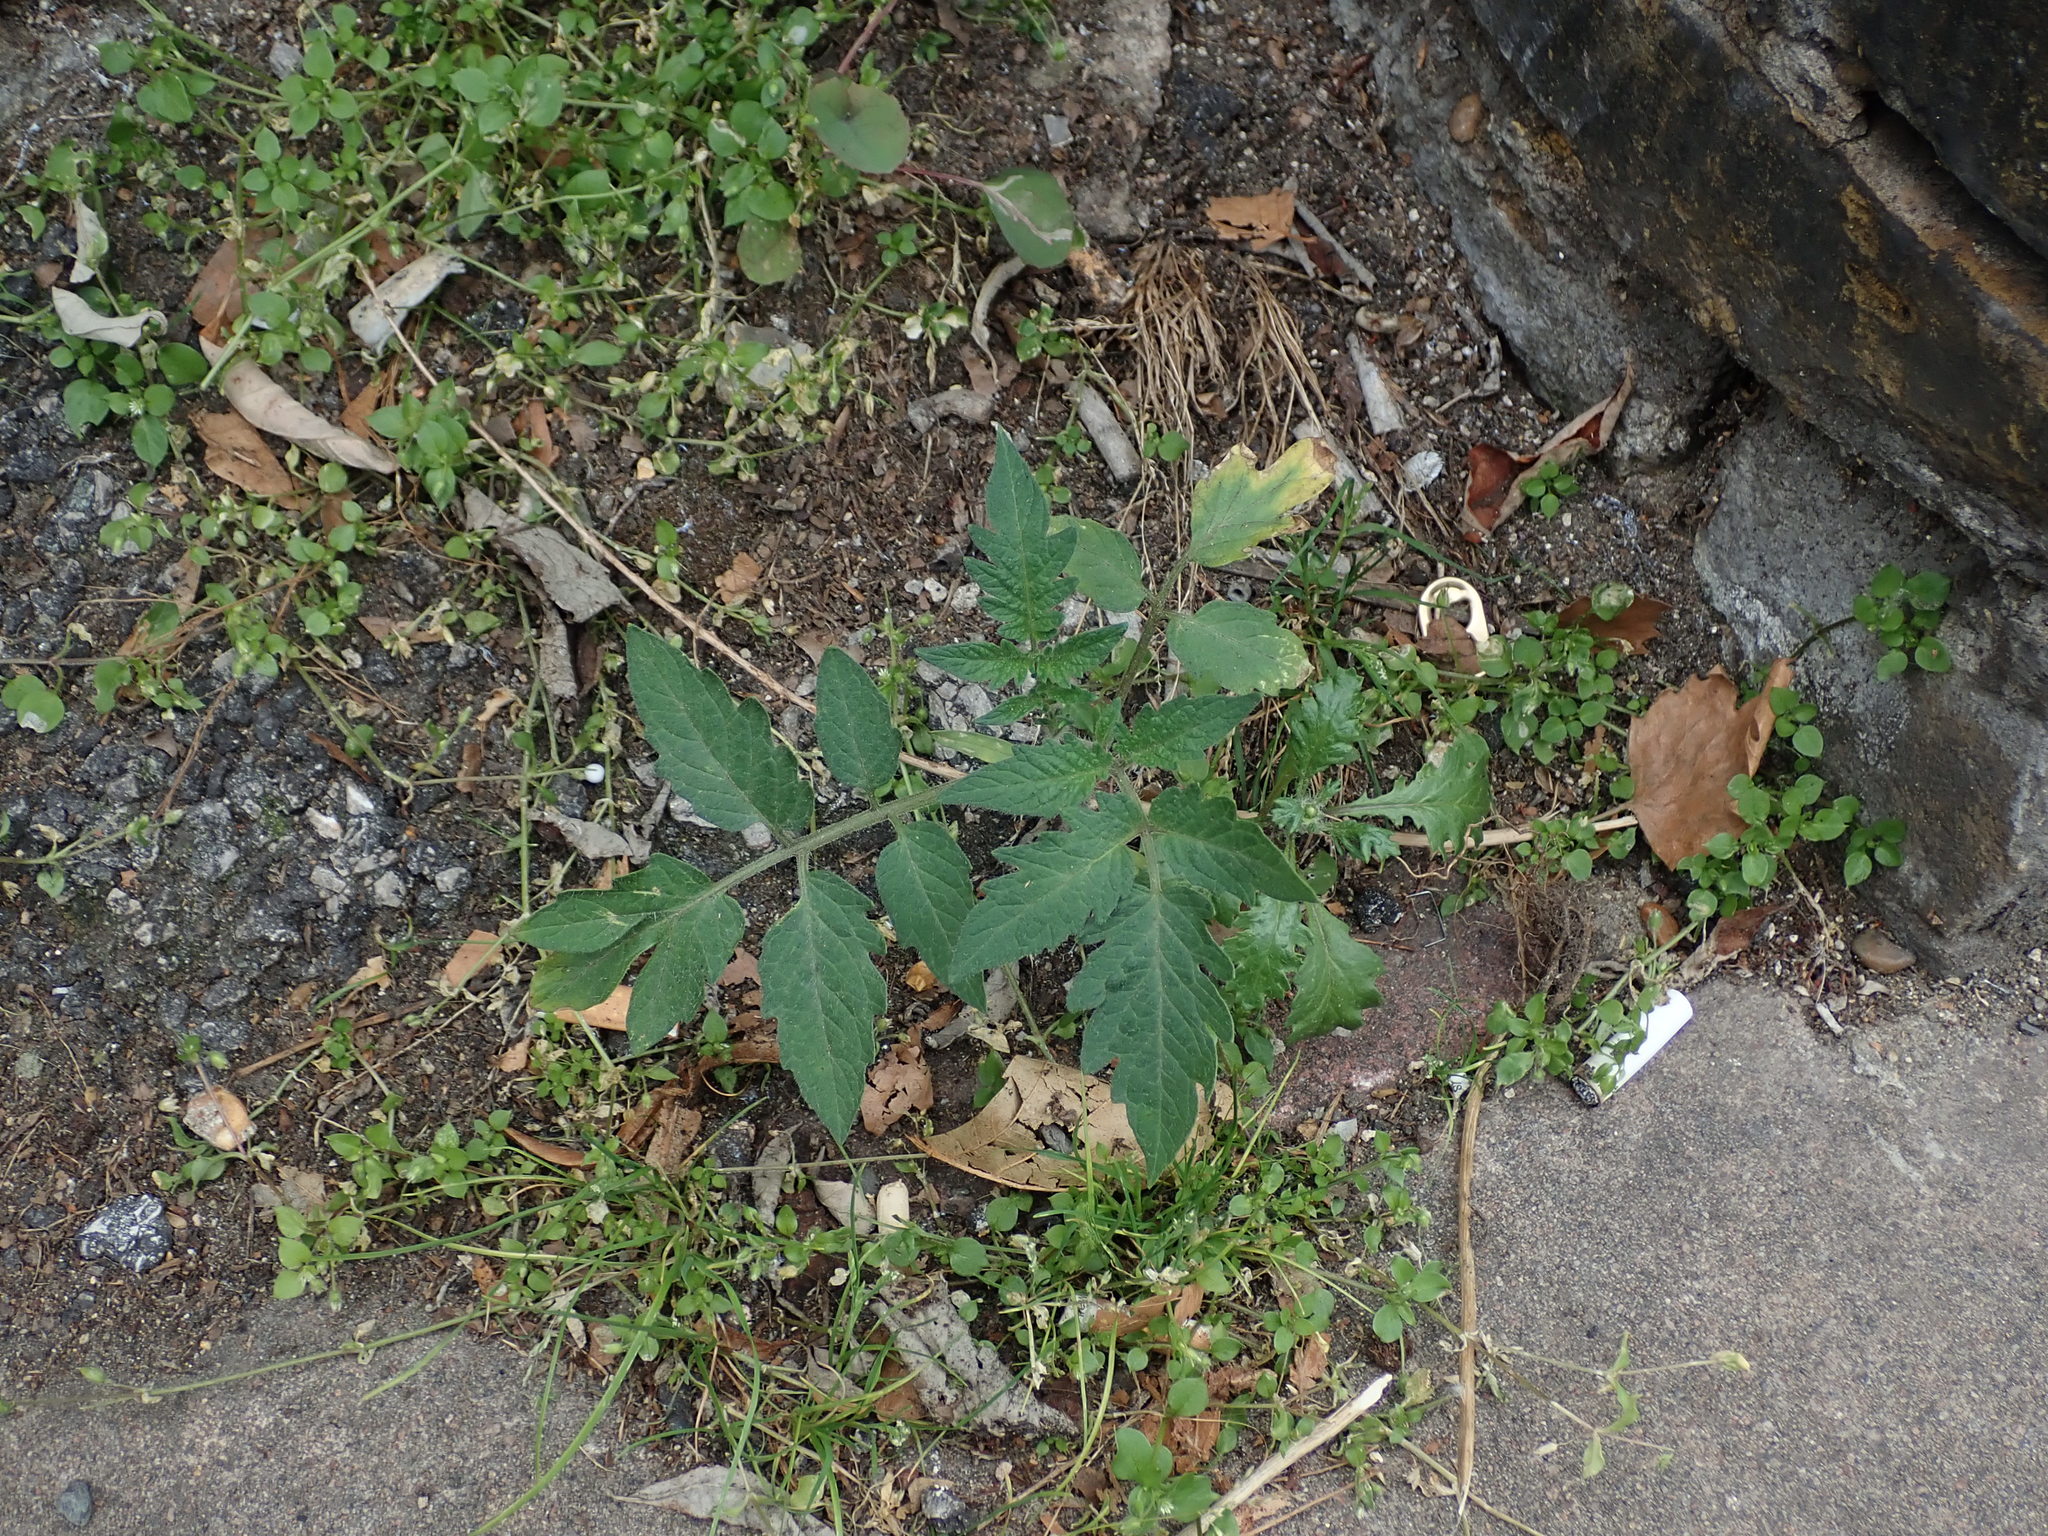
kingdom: Plantae
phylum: Tracheophyta
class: Magnoliopsida
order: Solanales
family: Solanaceae
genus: Solanum
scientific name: Solanum lycopersicum
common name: Garden tomato
